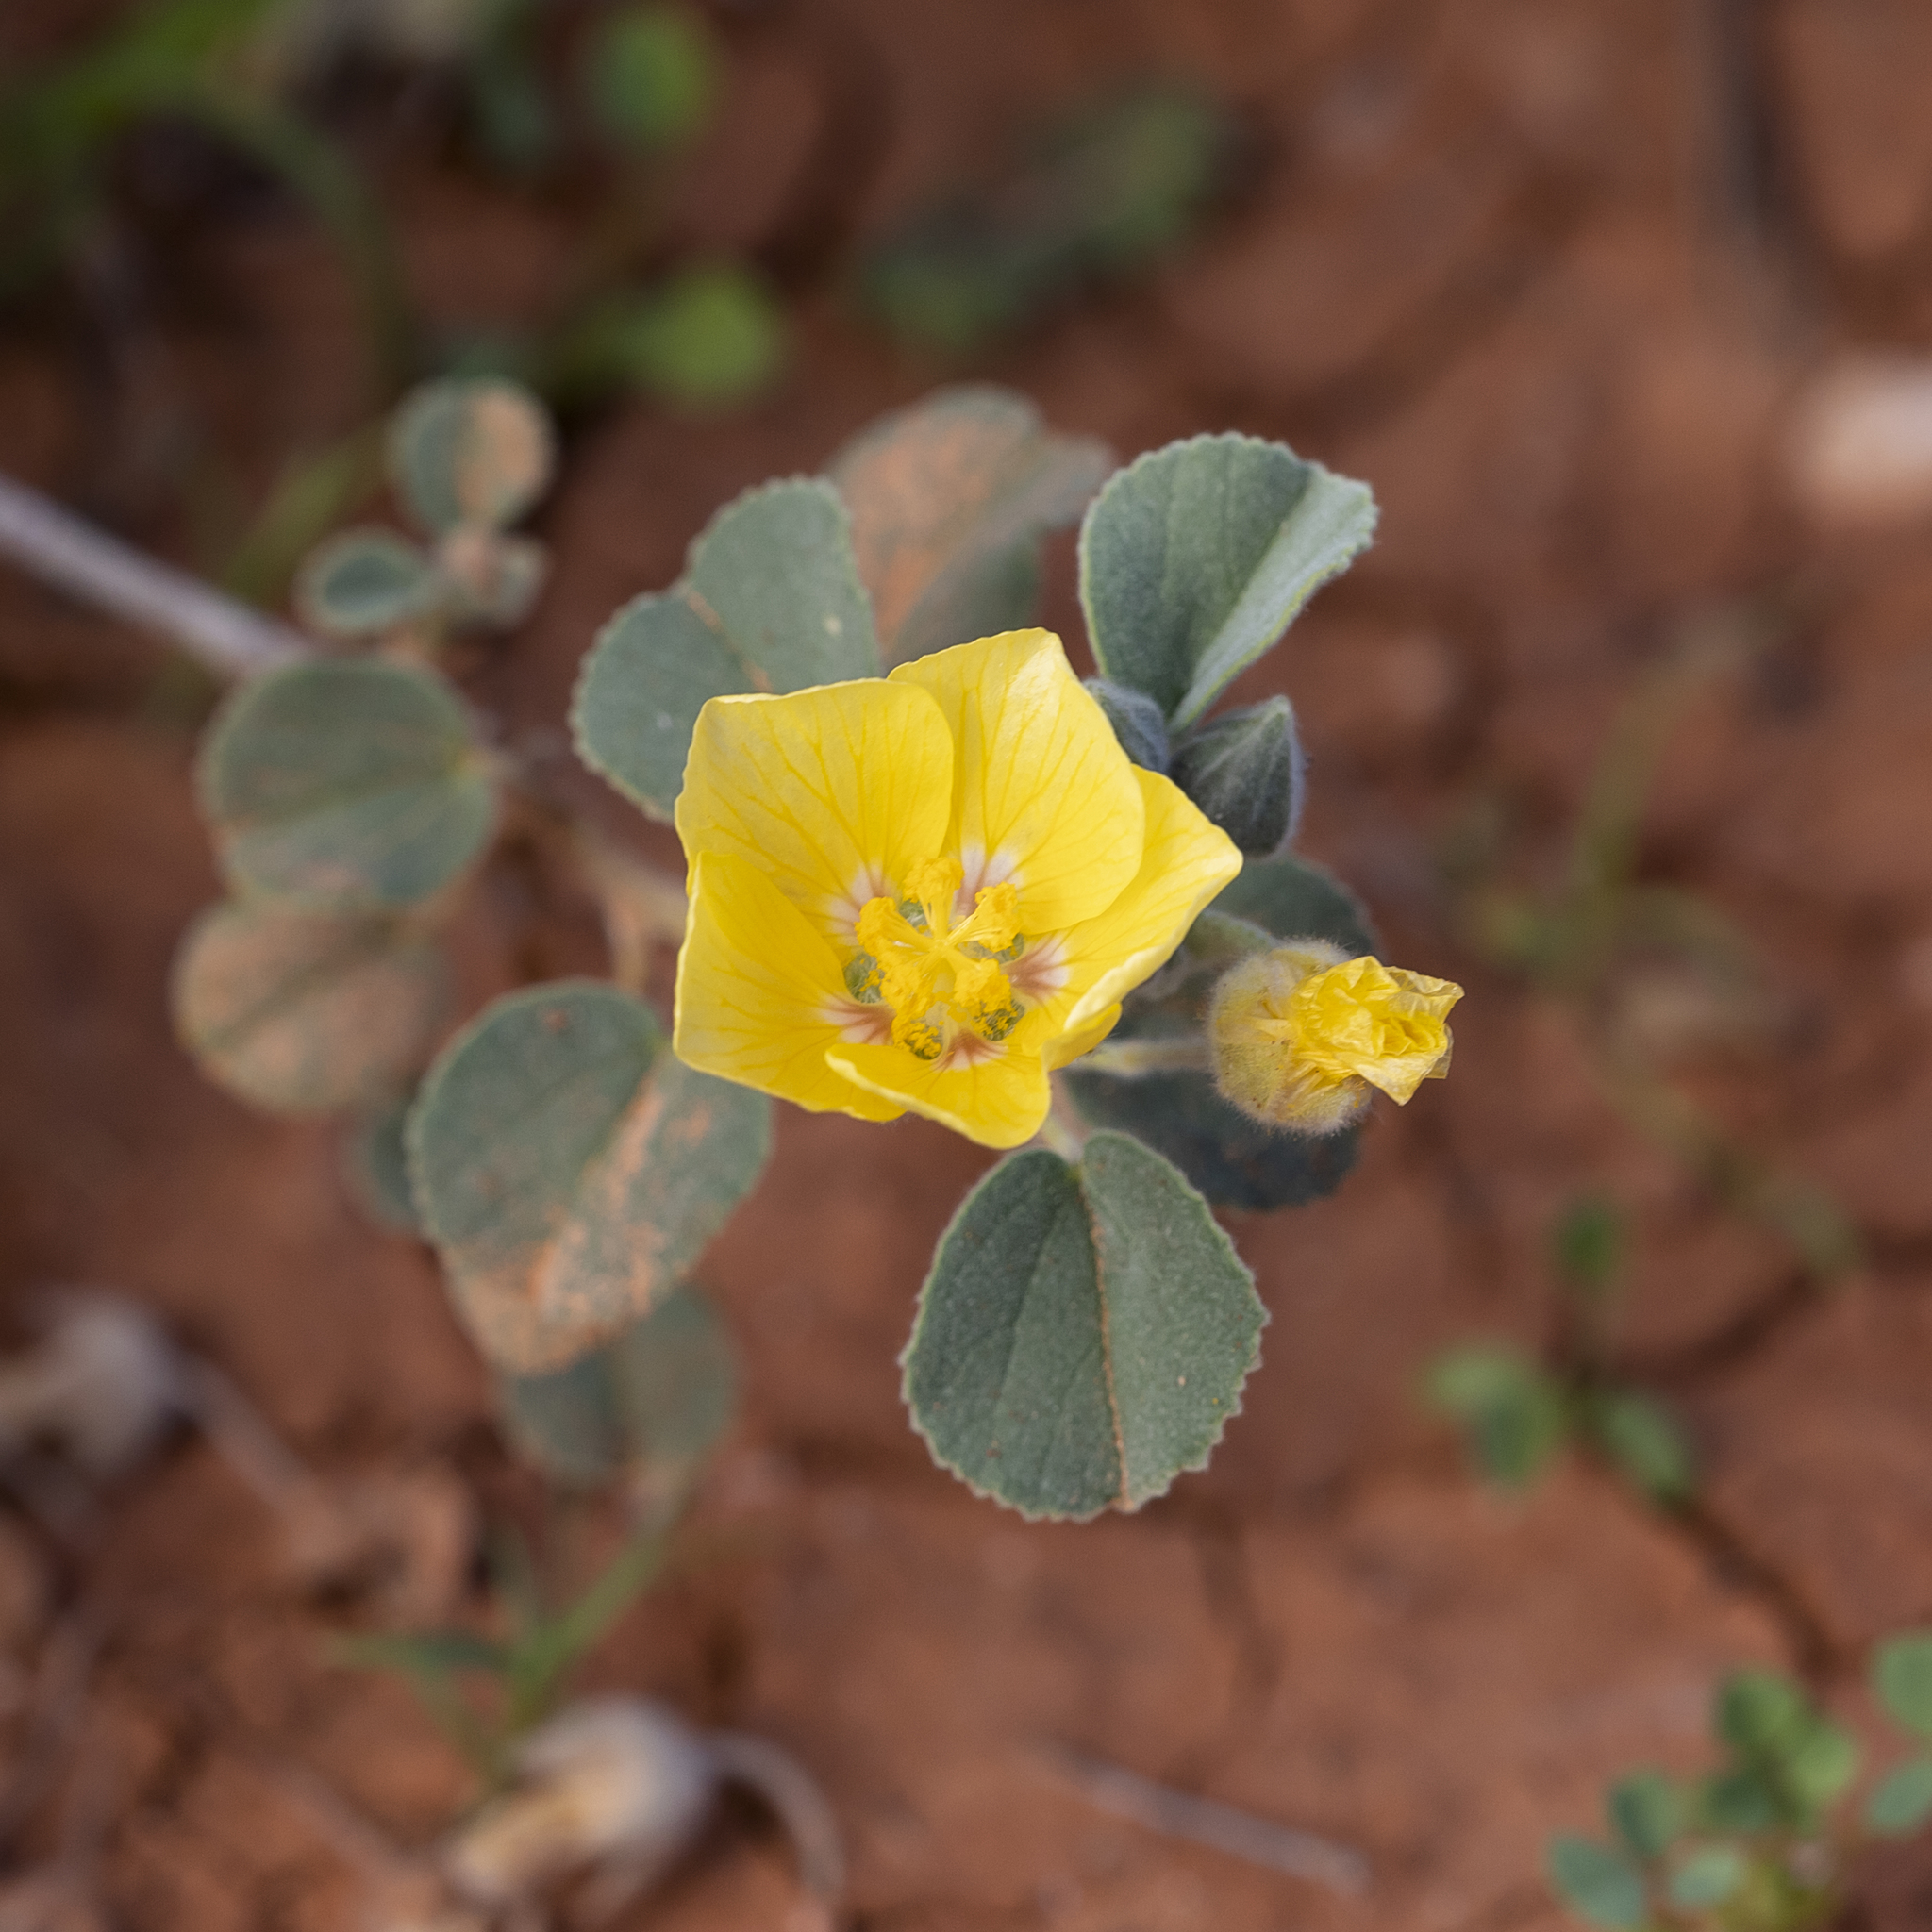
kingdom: Plantae
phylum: Tracheophyta
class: Magnoliopsida
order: Malvales
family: Malvaceae
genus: Abutilon
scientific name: Abutilon halophilum
